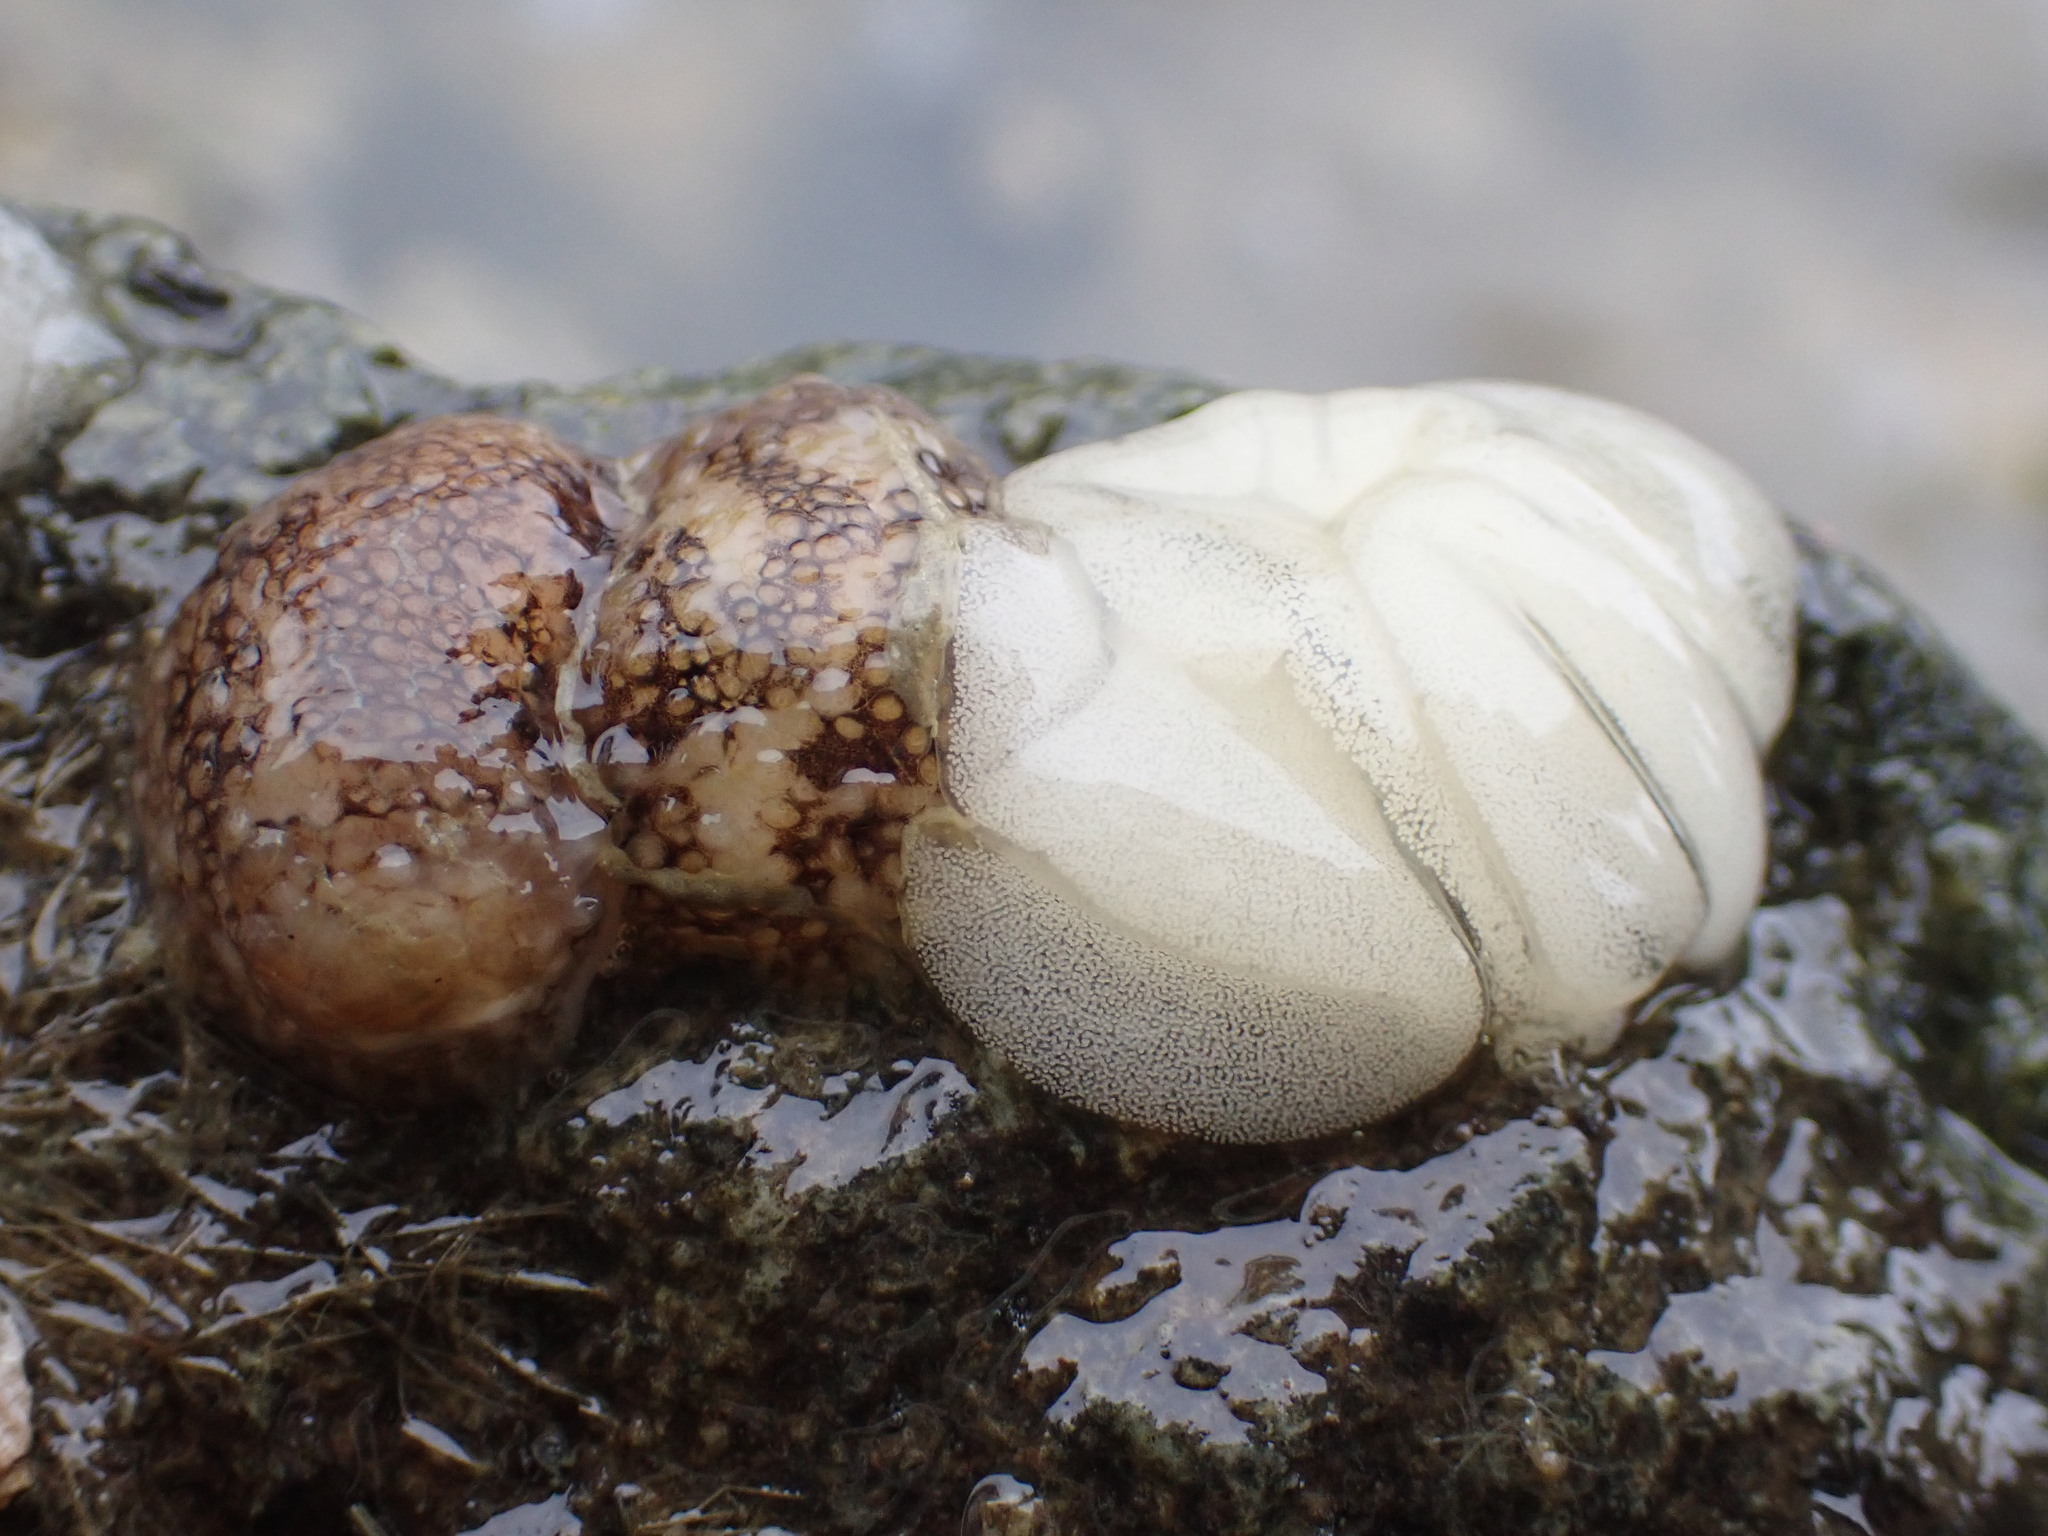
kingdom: Animalia
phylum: Mollusca
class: Gastropoda
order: Nudibranchia
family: Onchidorididae
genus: Onchidoris
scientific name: Onchidoris bilamellata
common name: Barnacle-eating onchidoris
